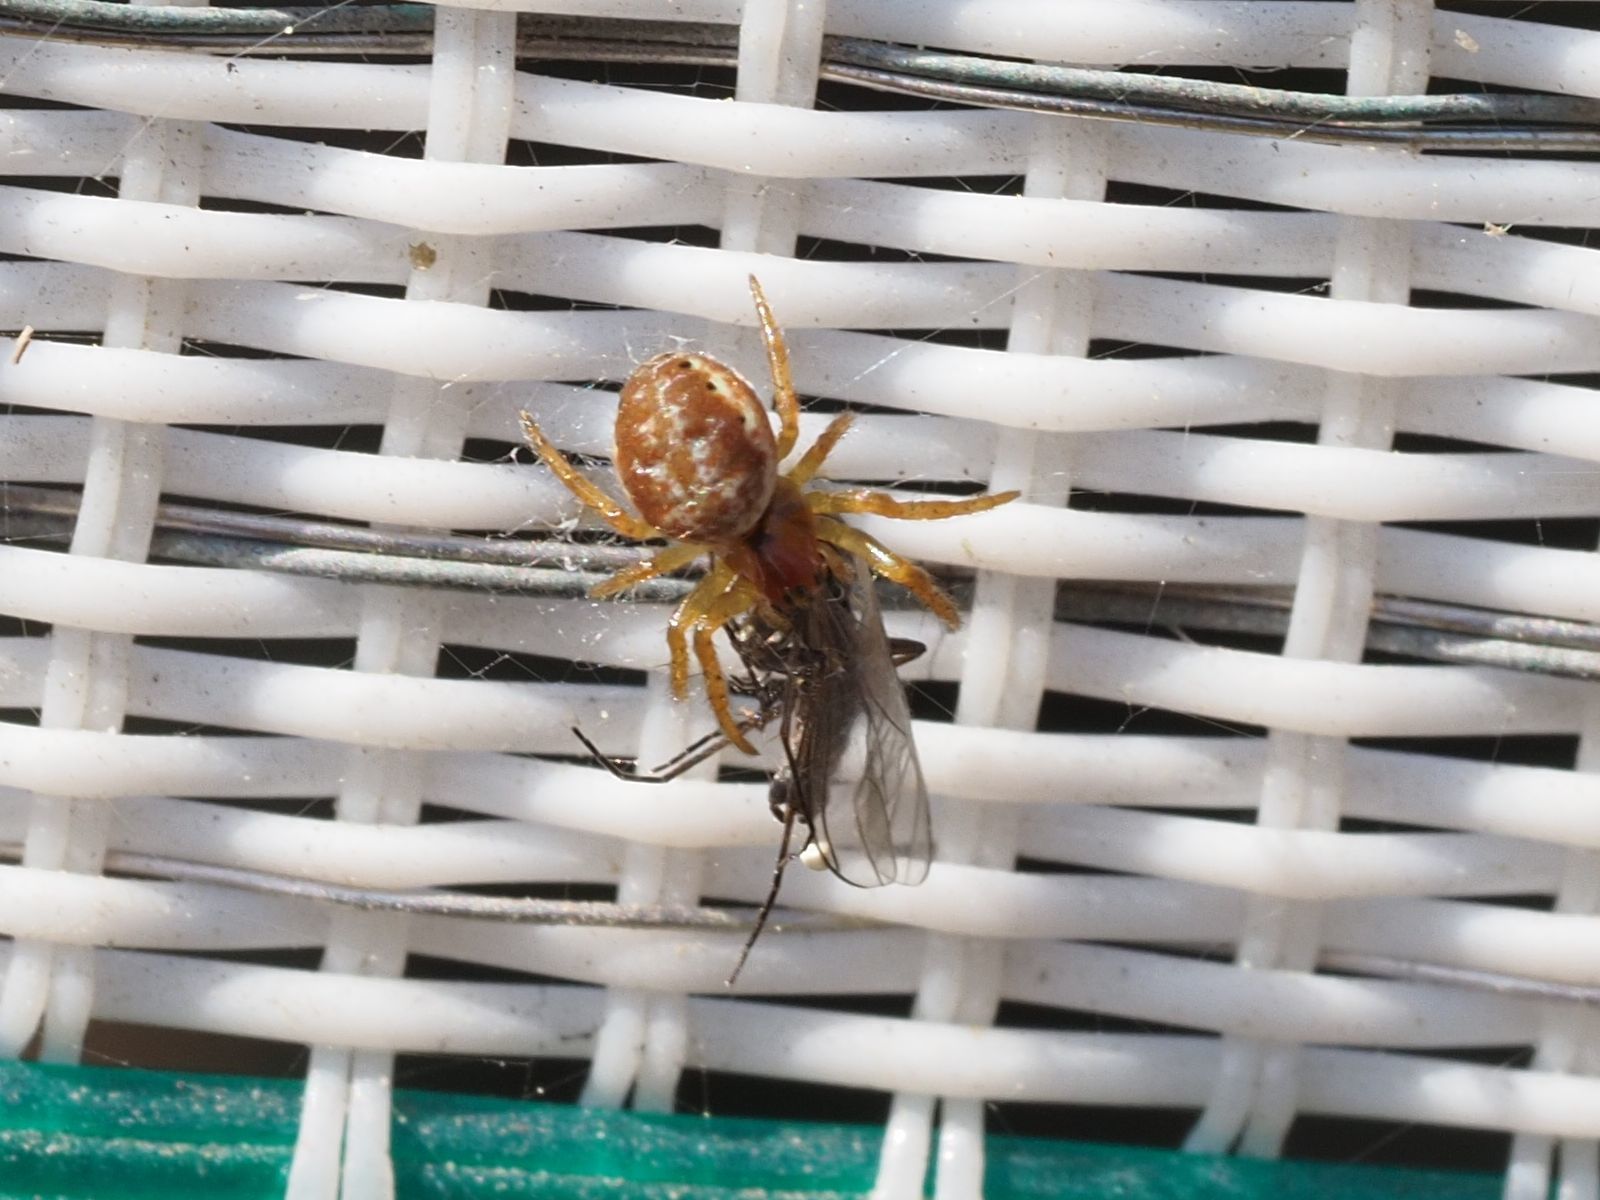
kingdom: Animalia
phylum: Arthropoda
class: Arachnida
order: Araneae
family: Araneidae
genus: Araniella
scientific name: Araniella displicata
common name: Sixspotted orb weaver
